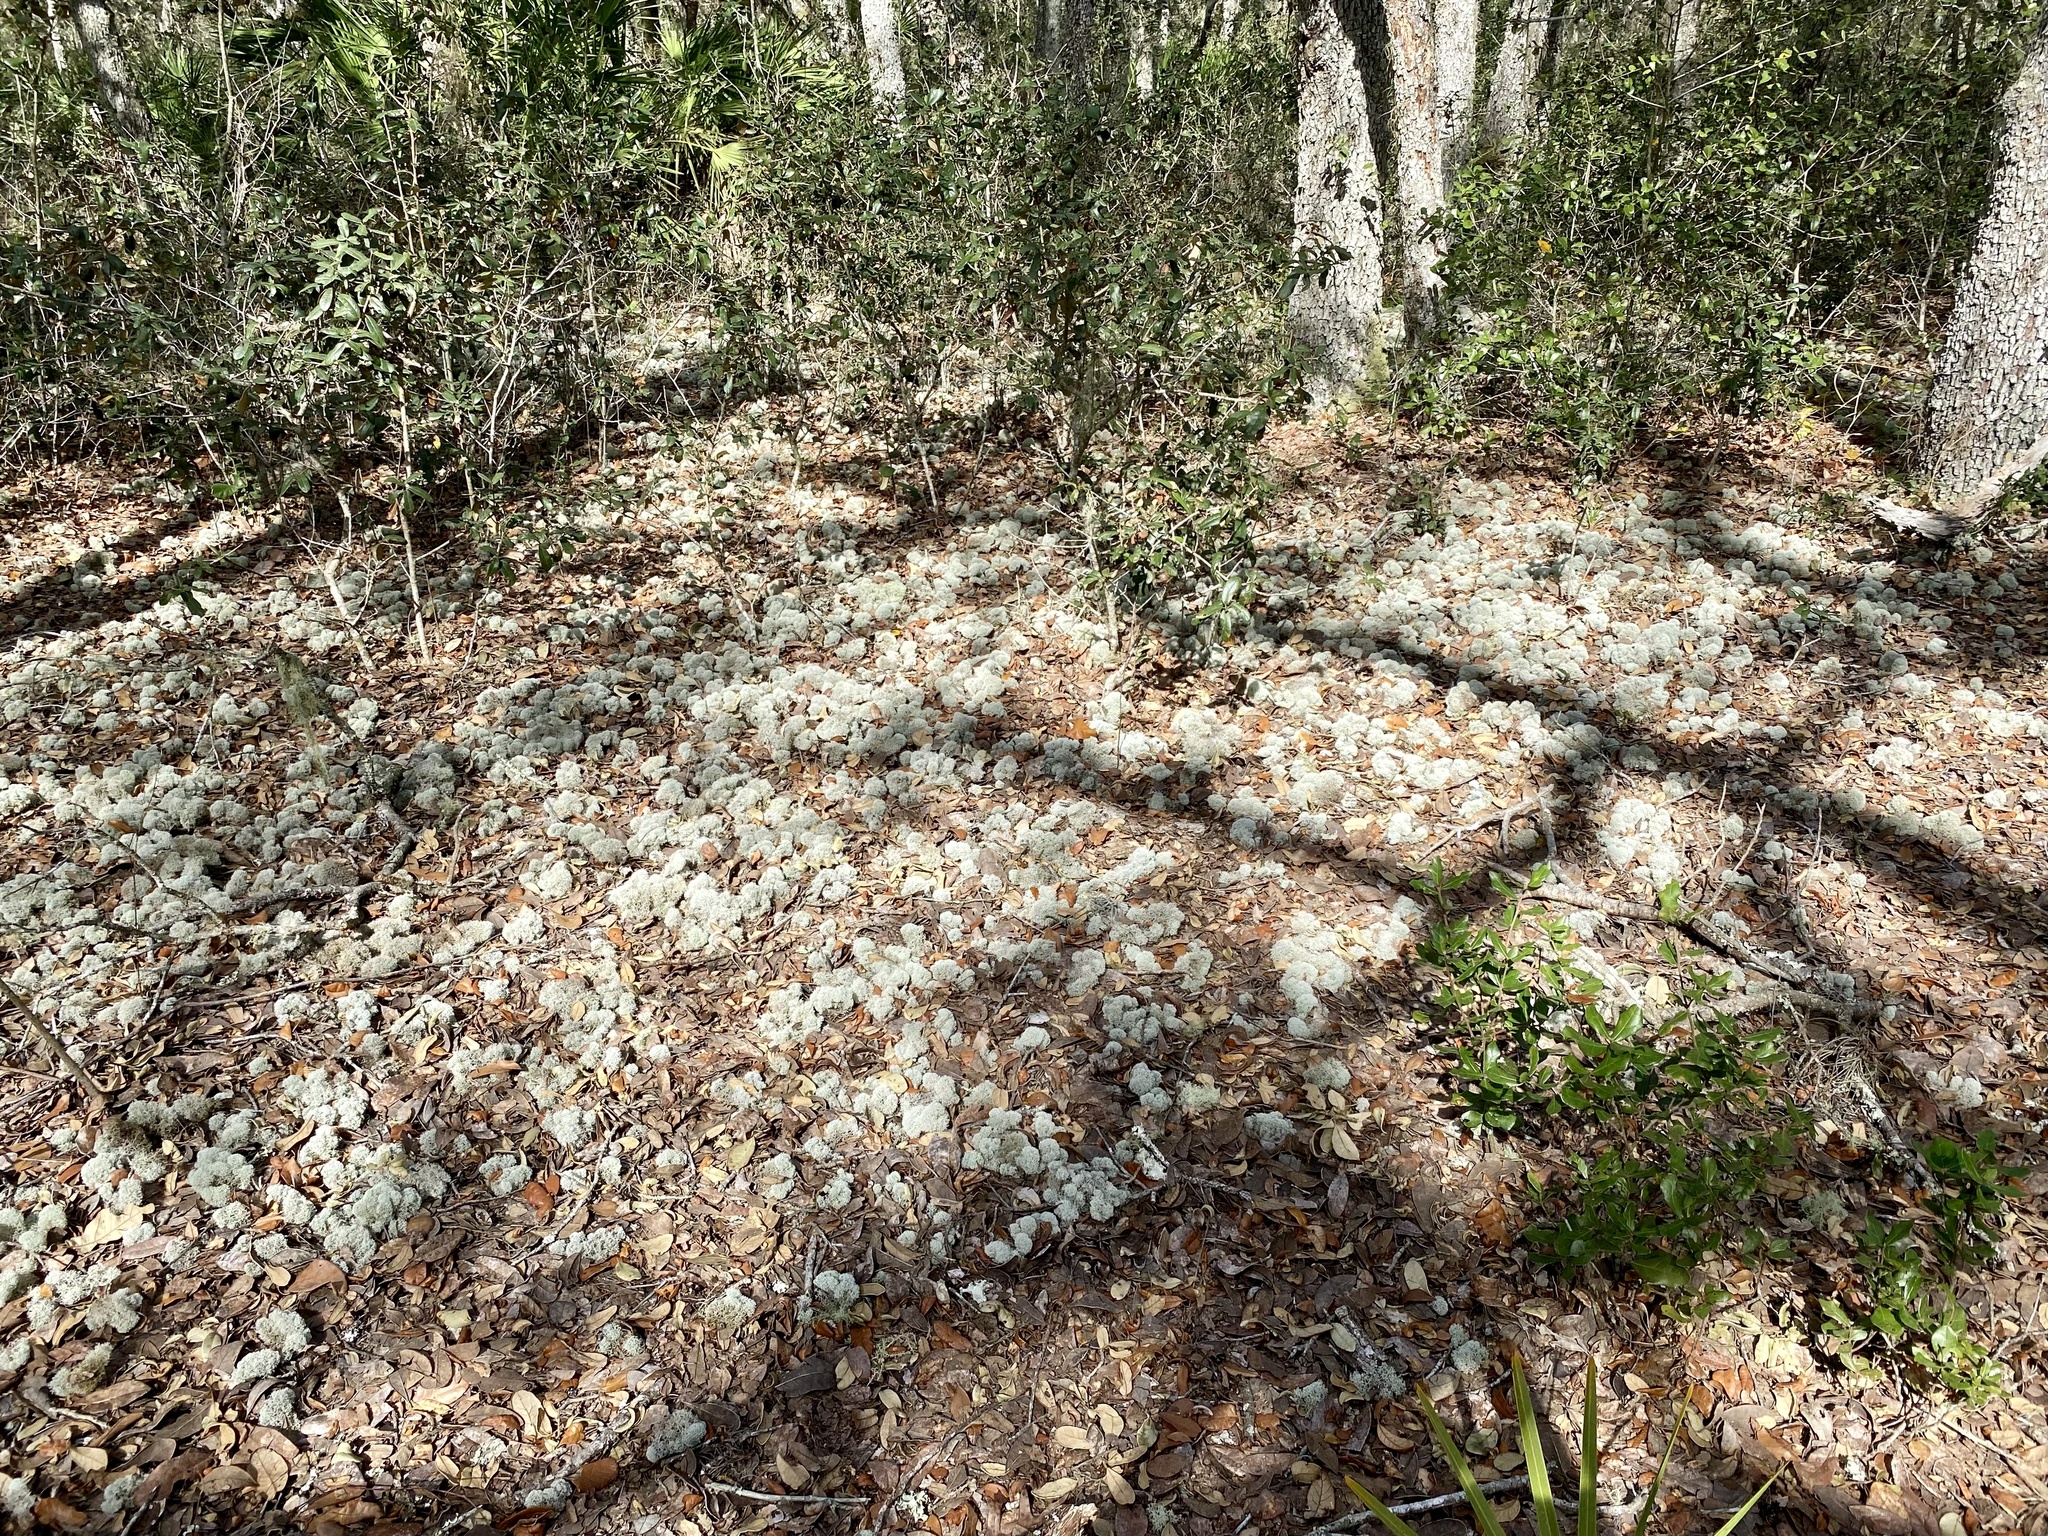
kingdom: Fungi
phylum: Ascomycota
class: Lecanoromycetes
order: Lecanorales
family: Cladoniaceae
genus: Cladonia
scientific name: Cladonia evansii
